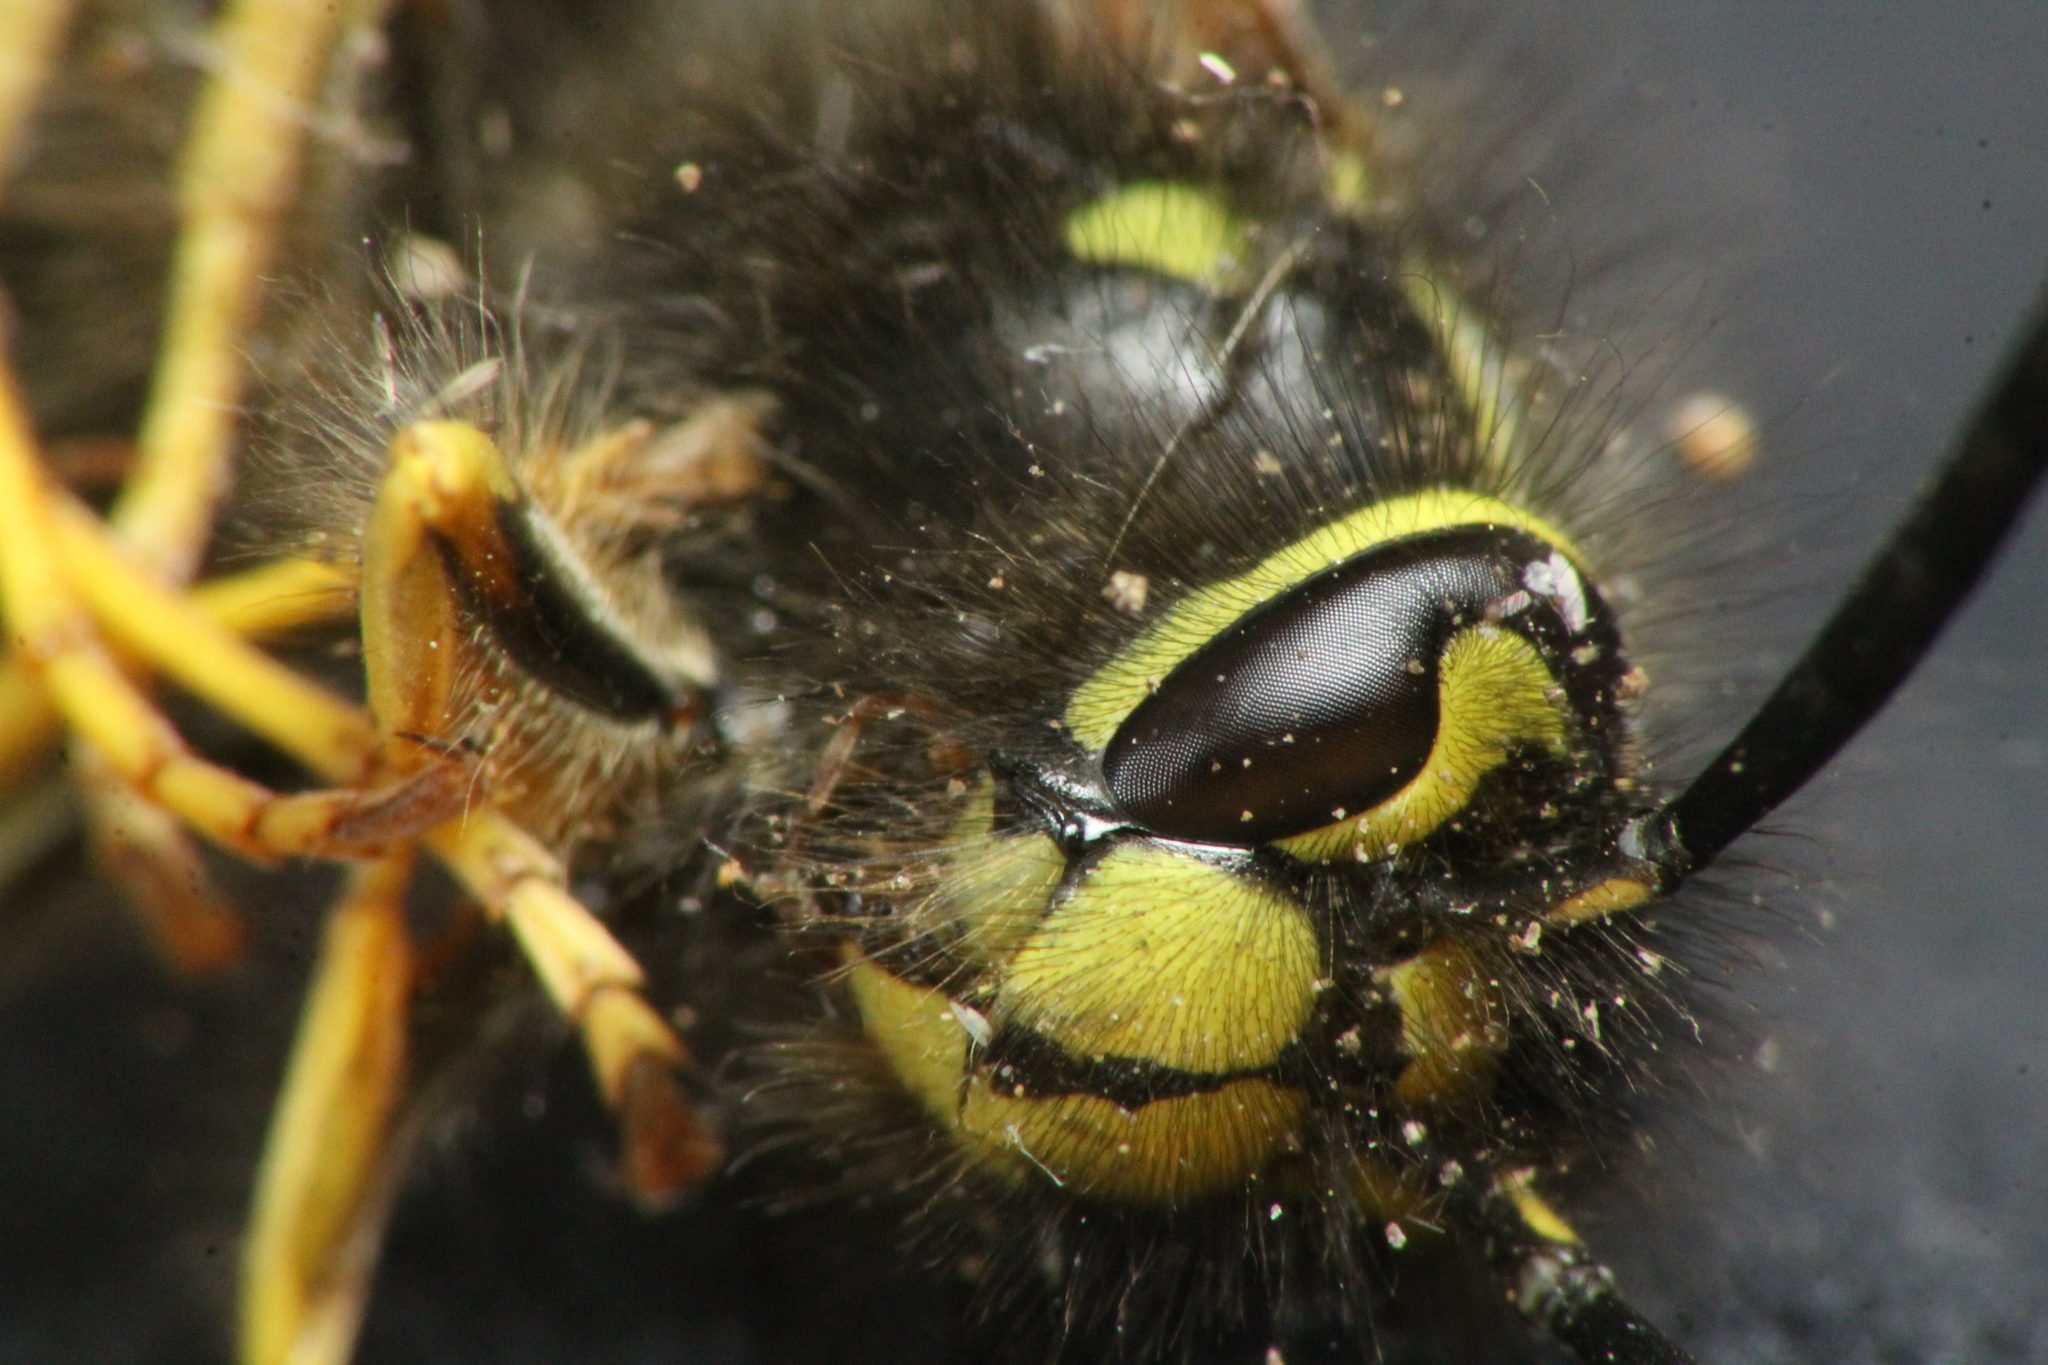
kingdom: Animalia
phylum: Arthropoda
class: Insecta
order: Hymenoptera
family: Vespidae
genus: Vespula
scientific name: Vespula vulgaris
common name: Common wasp
